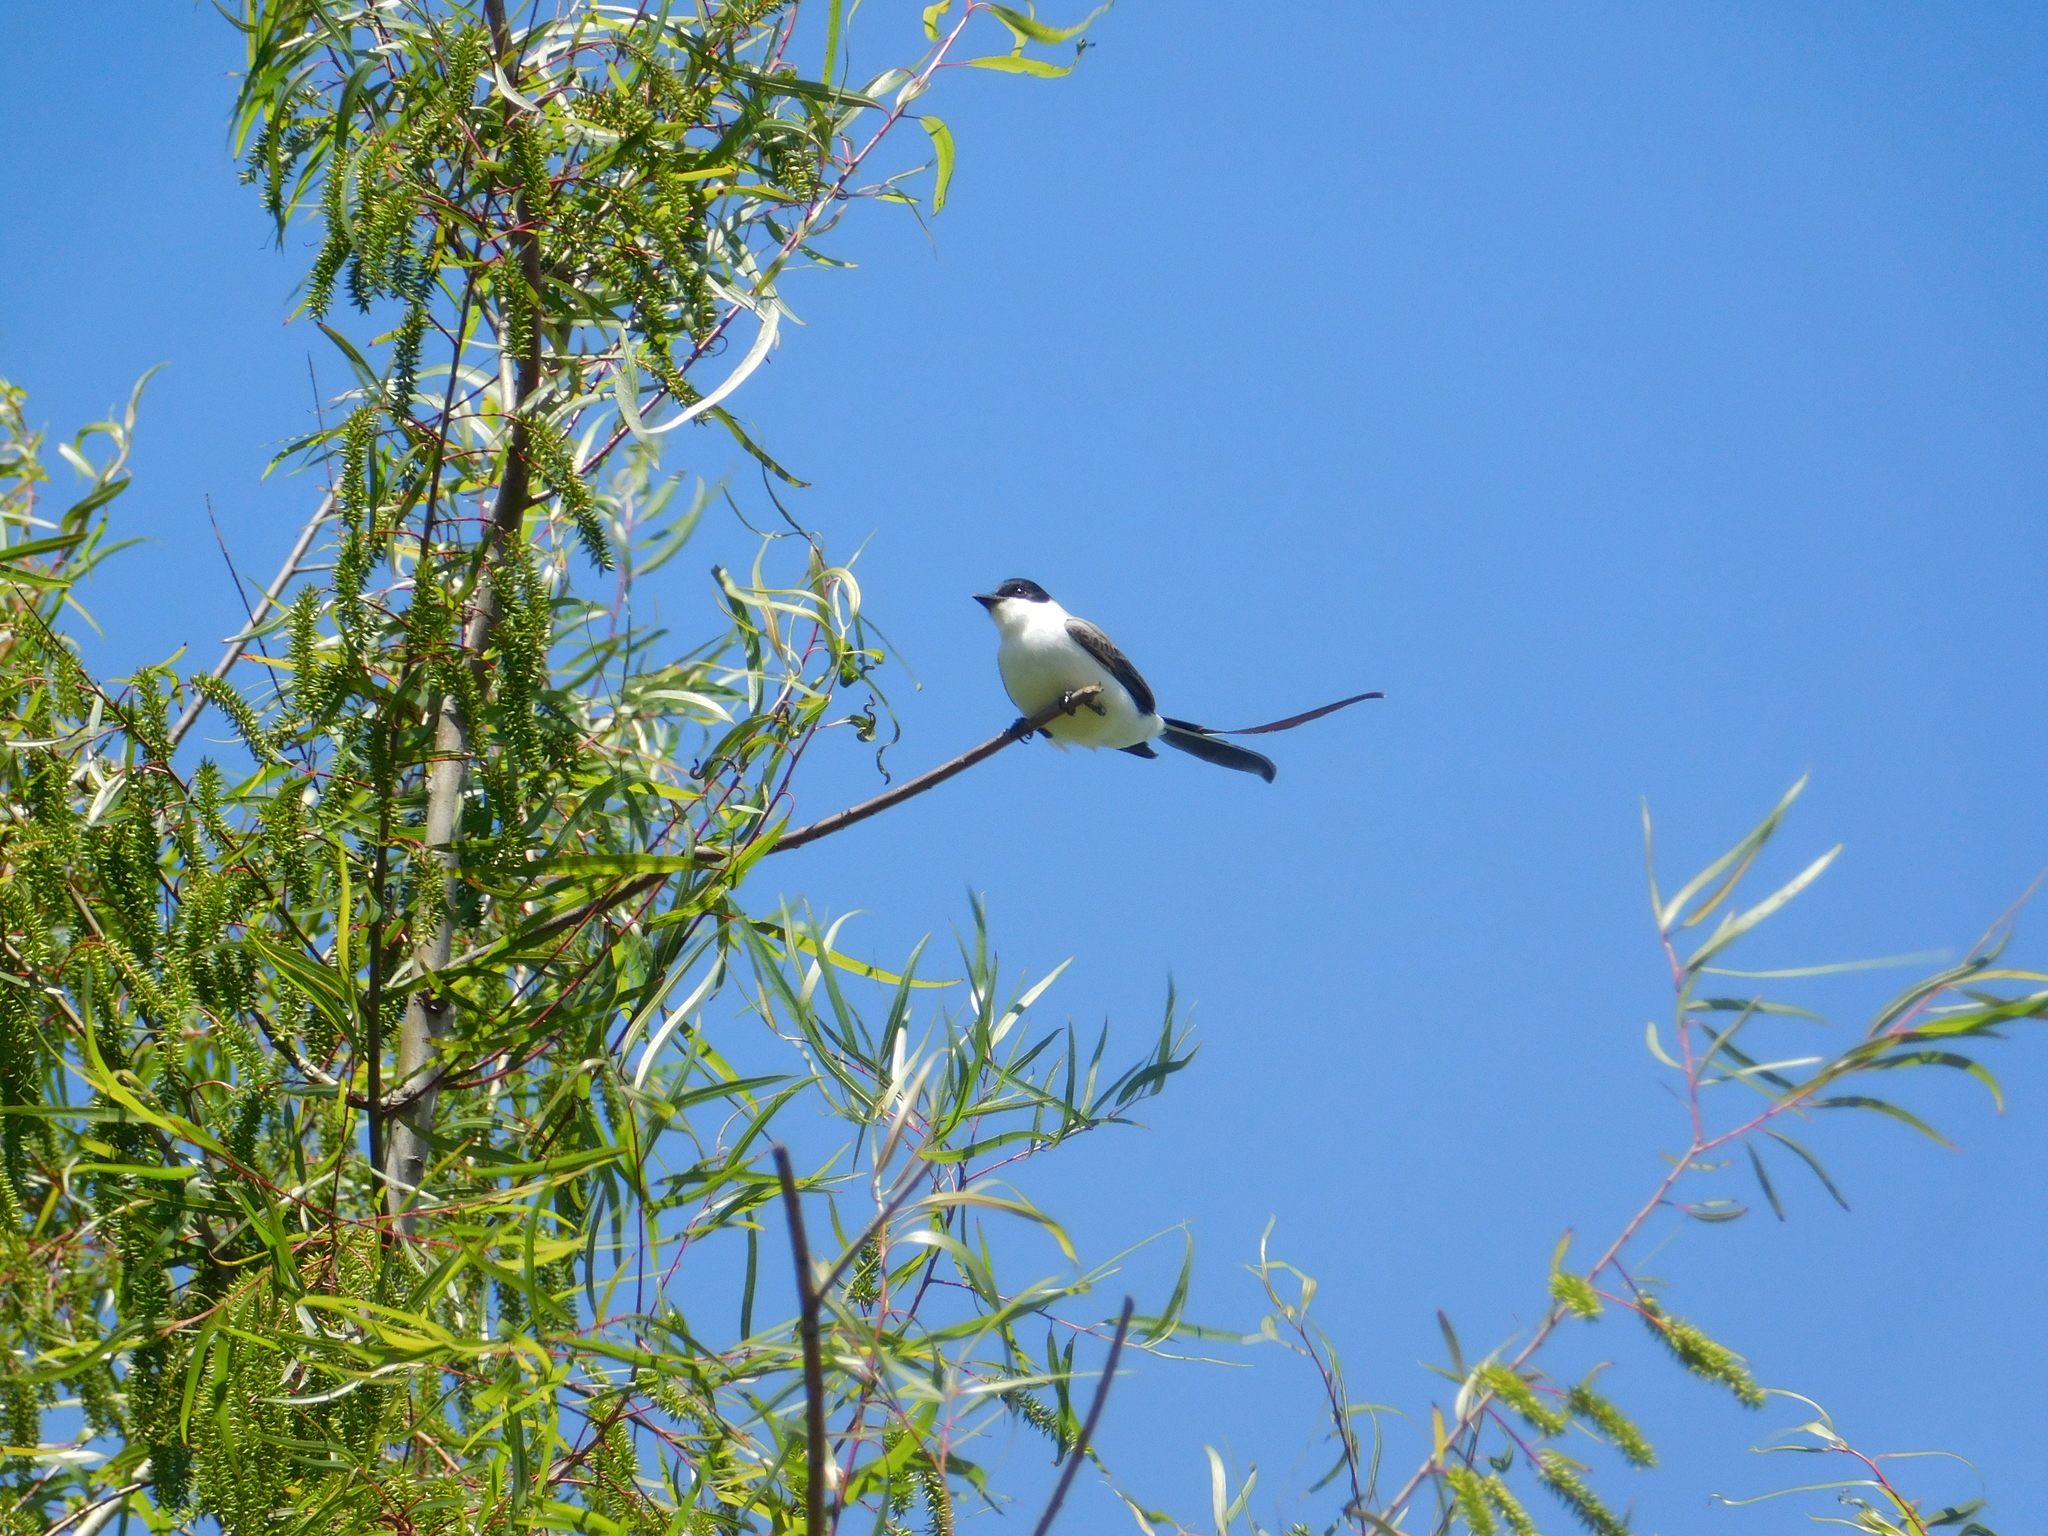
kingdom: Animalia
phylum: Chordata
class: Aves
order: Passeriformes
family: Tyrannidae
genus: Tyrannus
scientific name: Tyrannus savana
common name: Fork-tailed flycatcher
